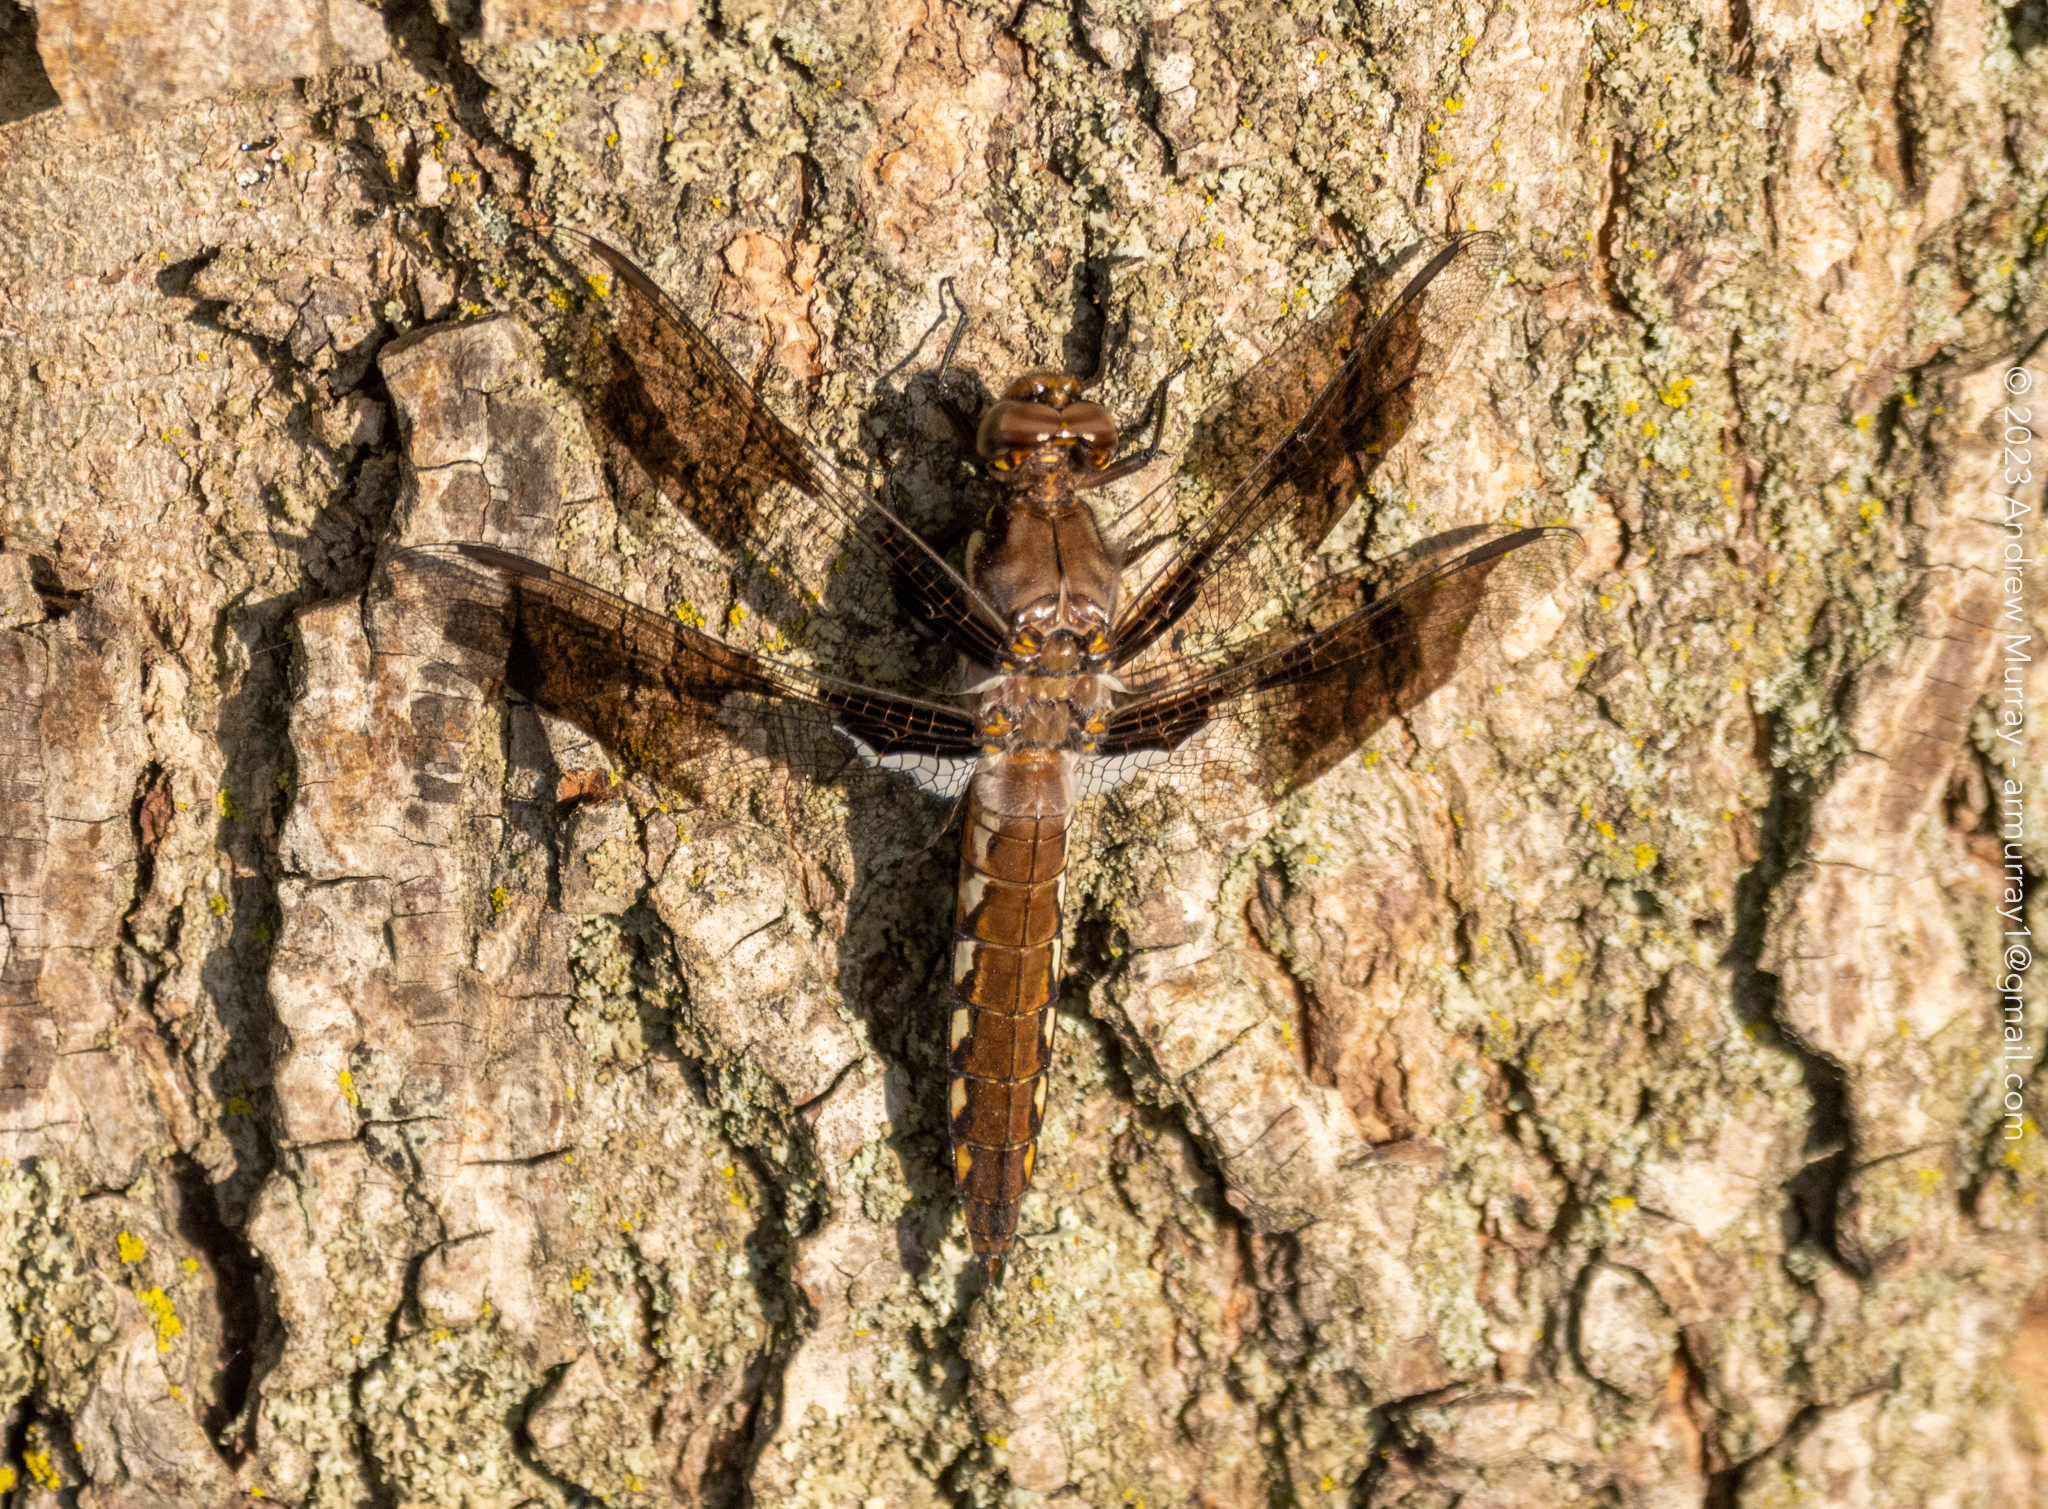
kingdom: Animalia
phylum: Arthropoda
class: Insecta
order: Odonata
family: Libellulidae
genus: Plathemis
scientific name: Plathemis lydia
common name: Common whitetail
